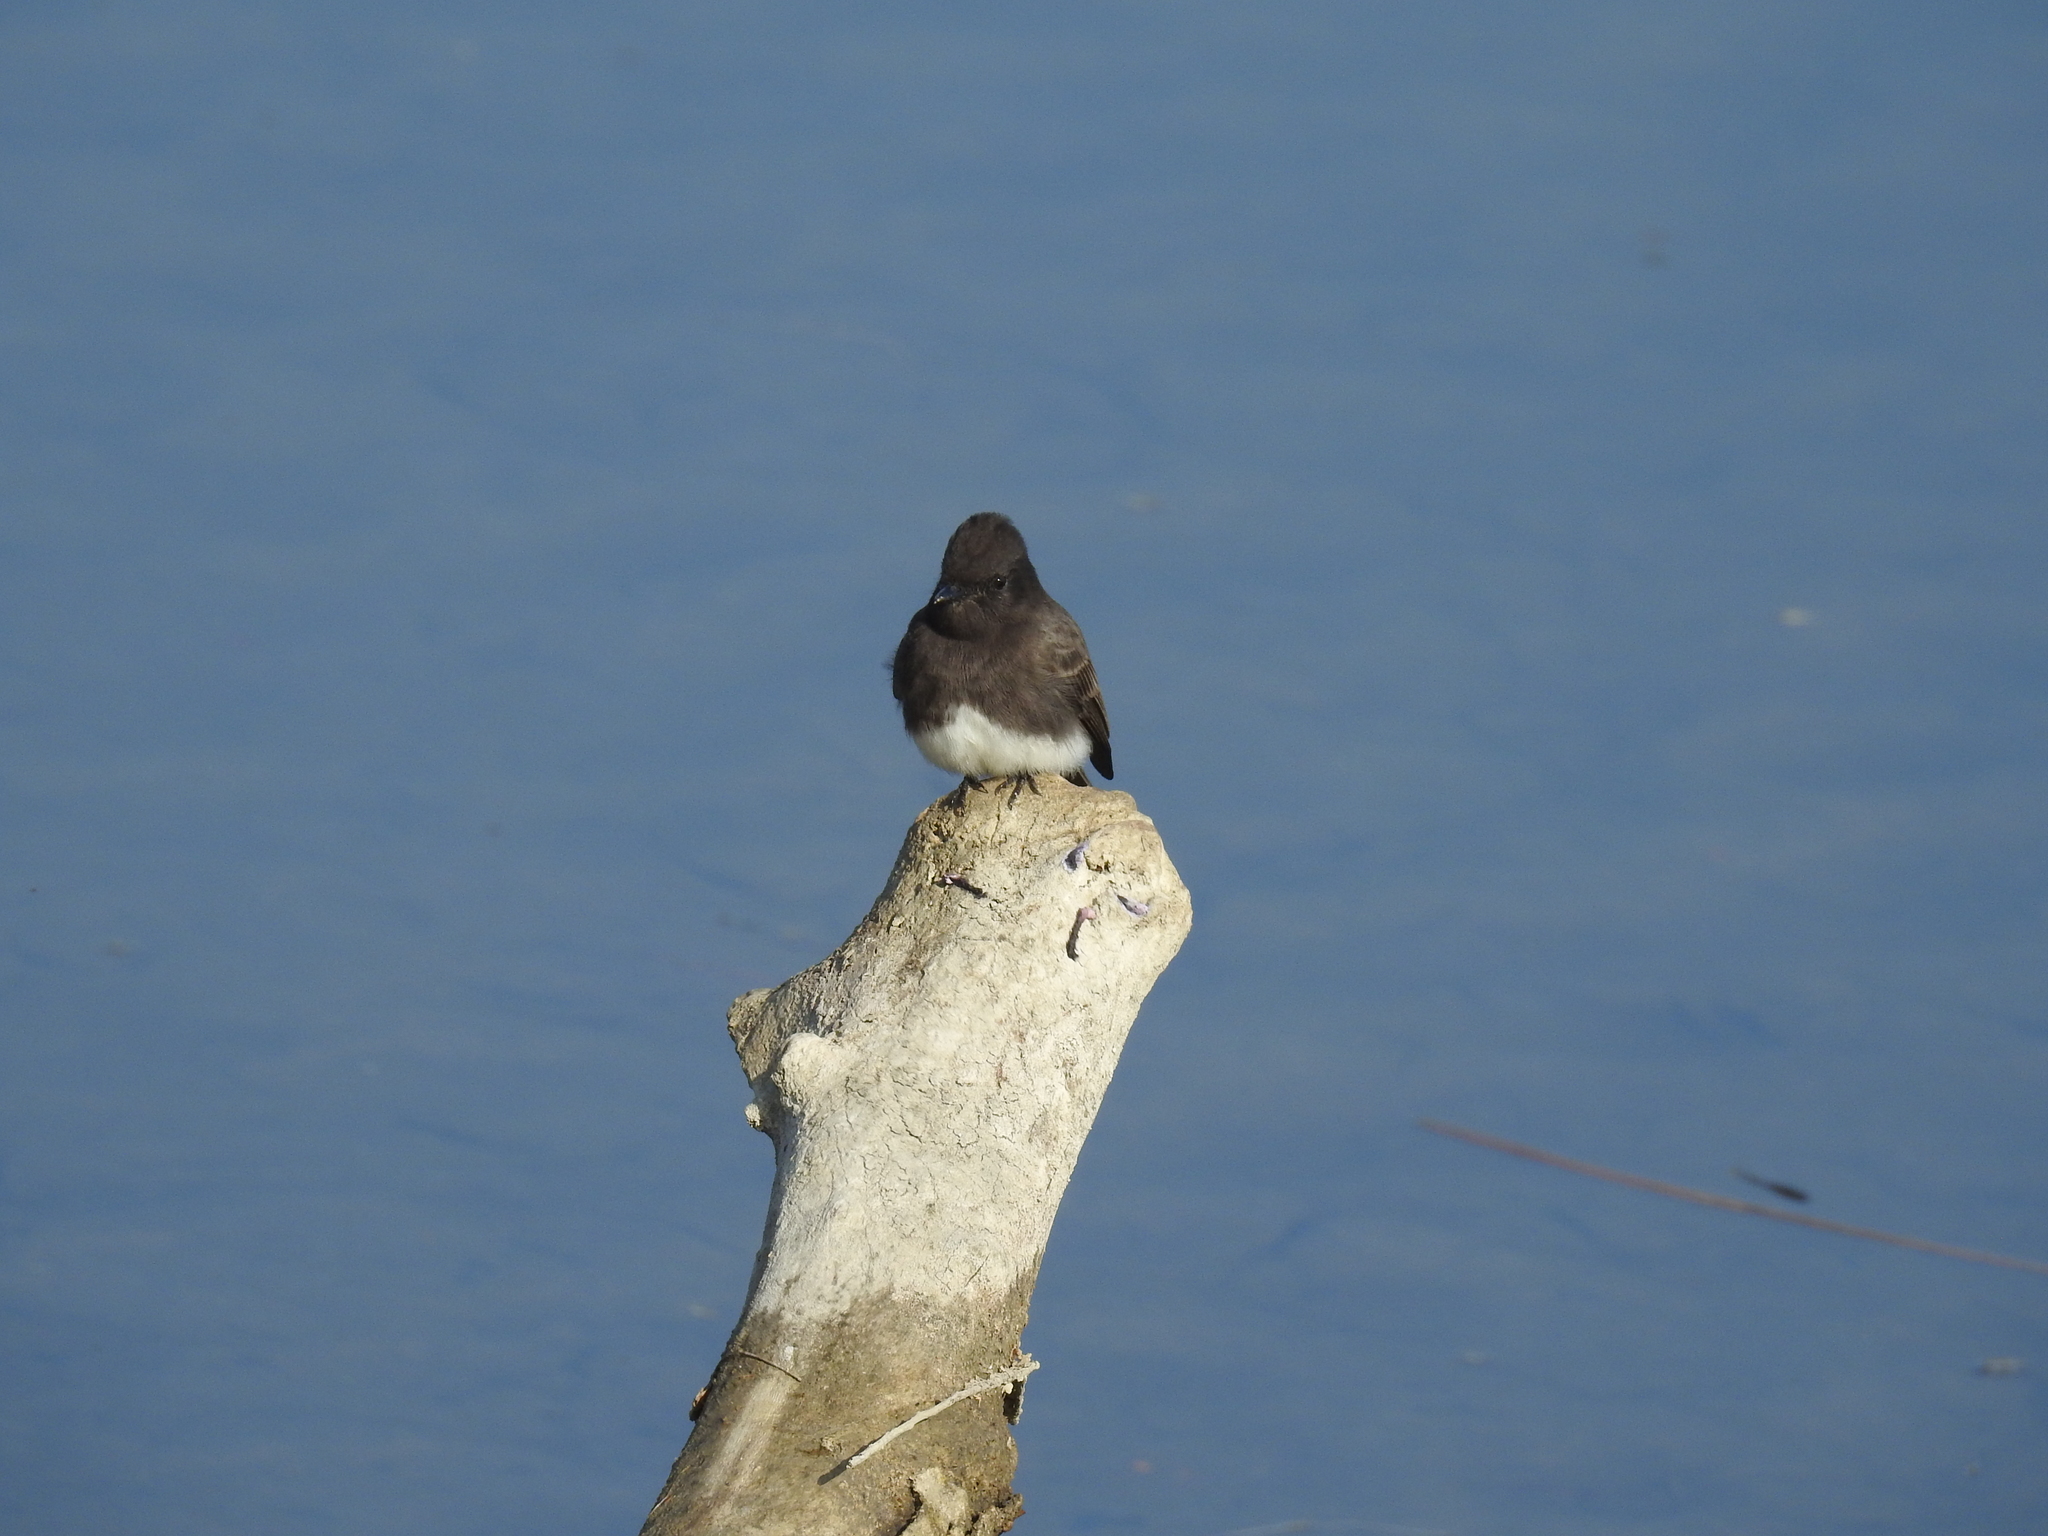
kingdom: Animalia
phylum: Chordata
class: Aves
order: Passeriformes
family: Tyrannidae
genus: Sayornis
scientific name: Sayornis nigricans
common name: Black phoebe
